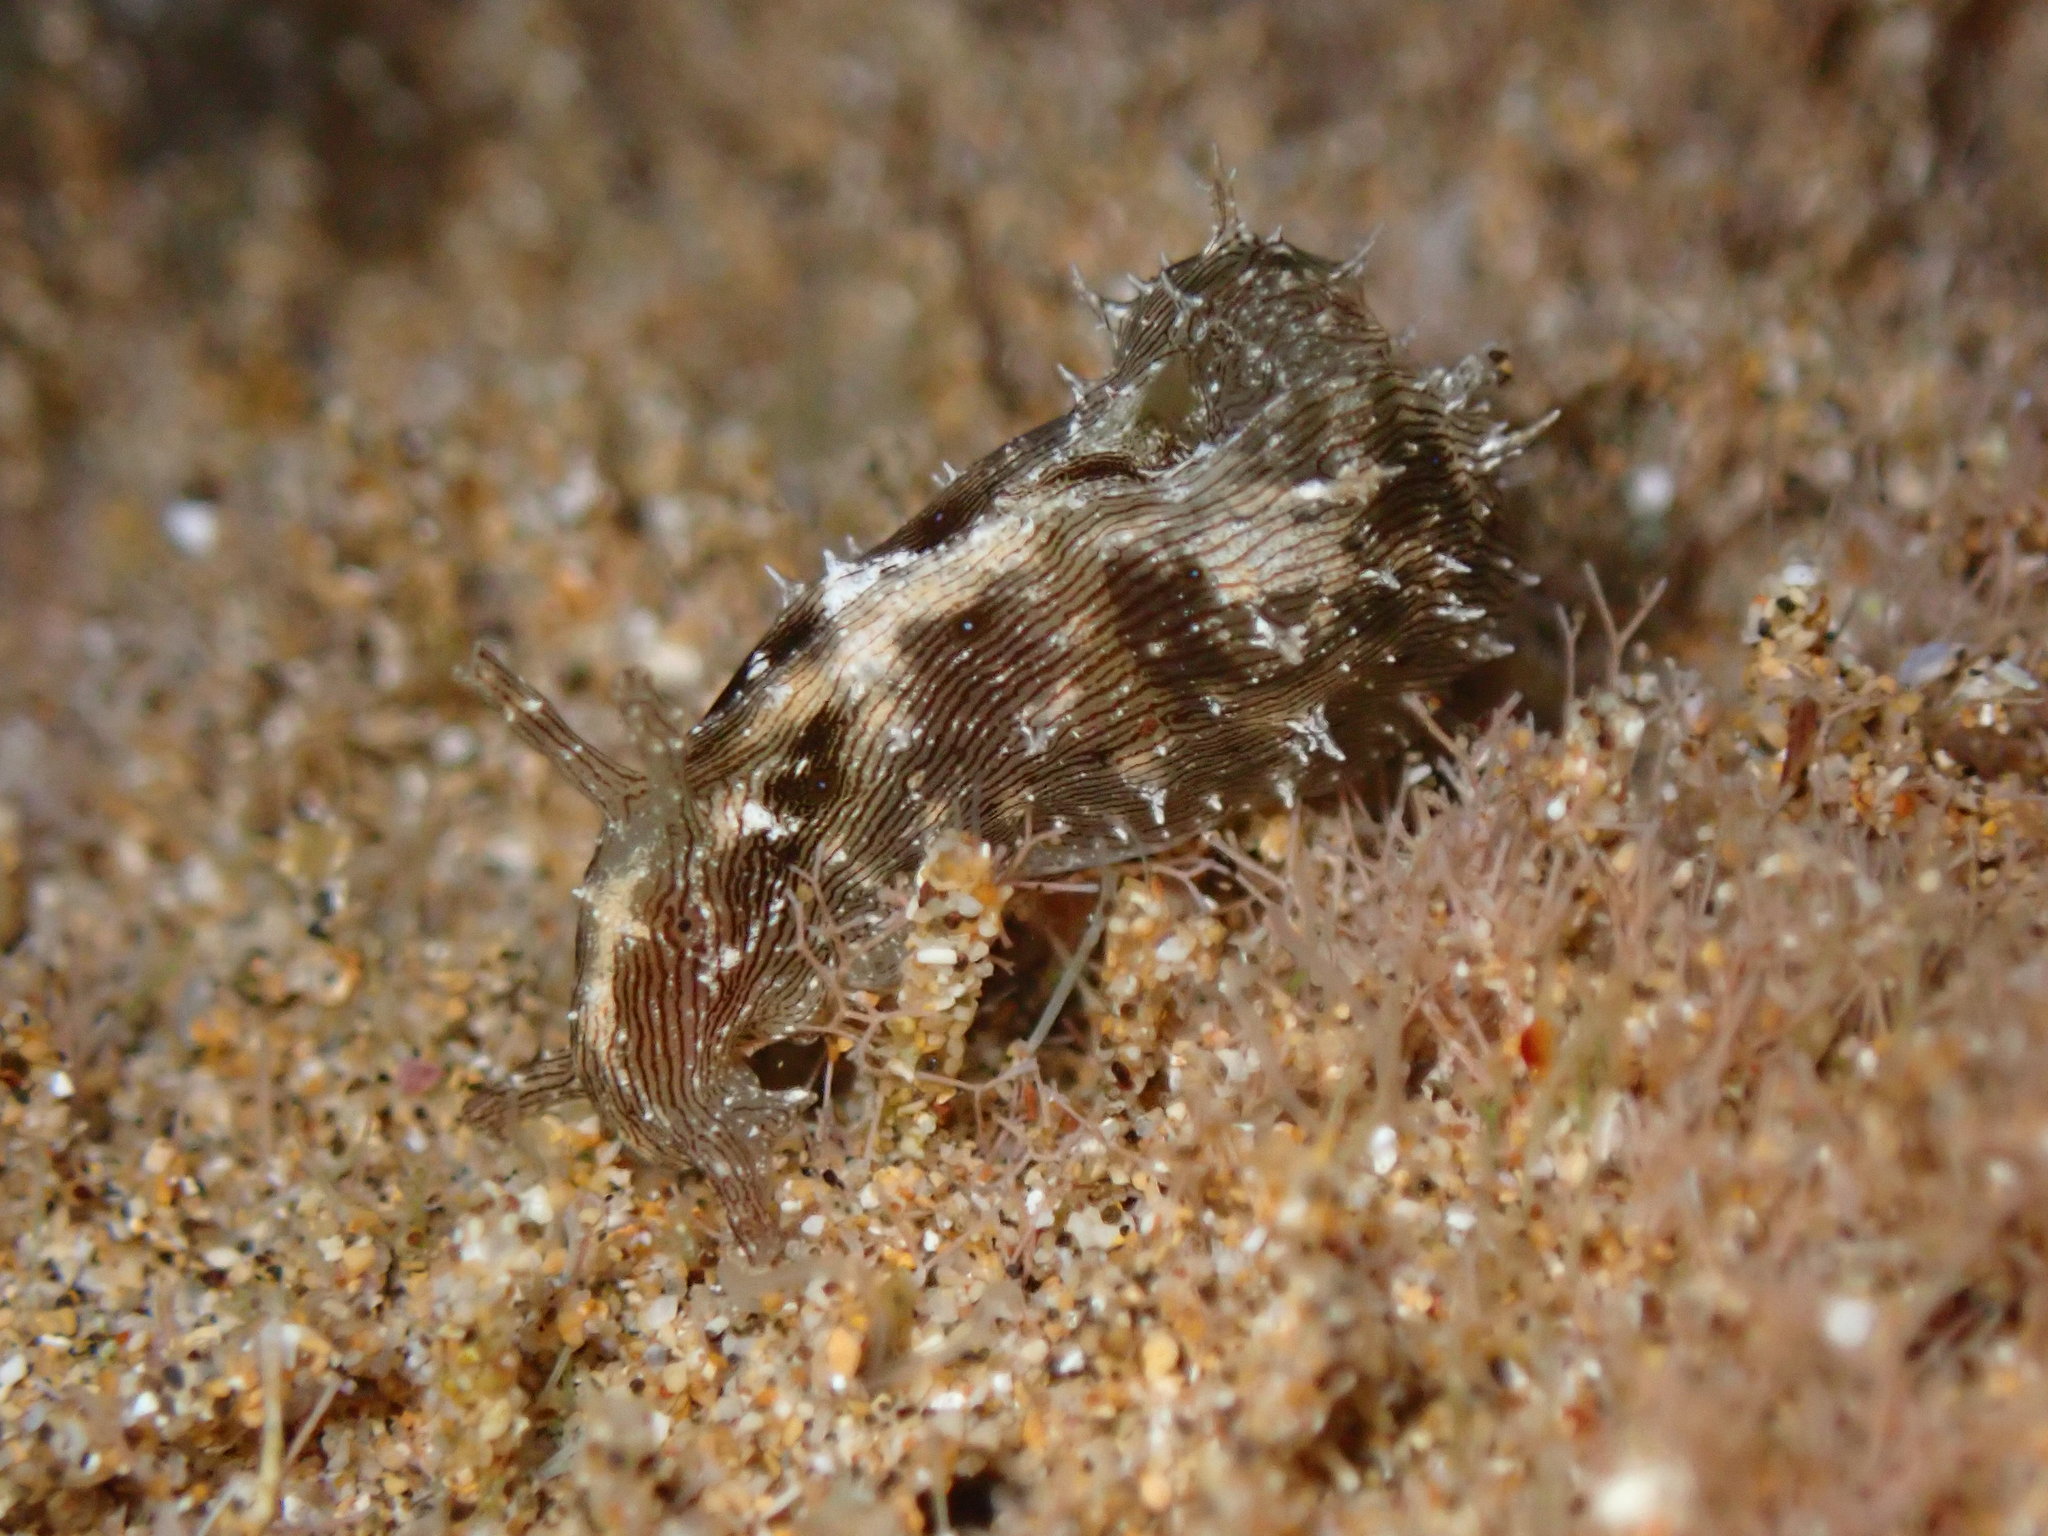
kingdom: Animalia
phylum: Mollusca
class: Gastropoda
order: Aplysiida
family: Aplysiidae
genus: Stylocheilus
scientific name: Stylocheilus striatus
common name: Striated seahare
